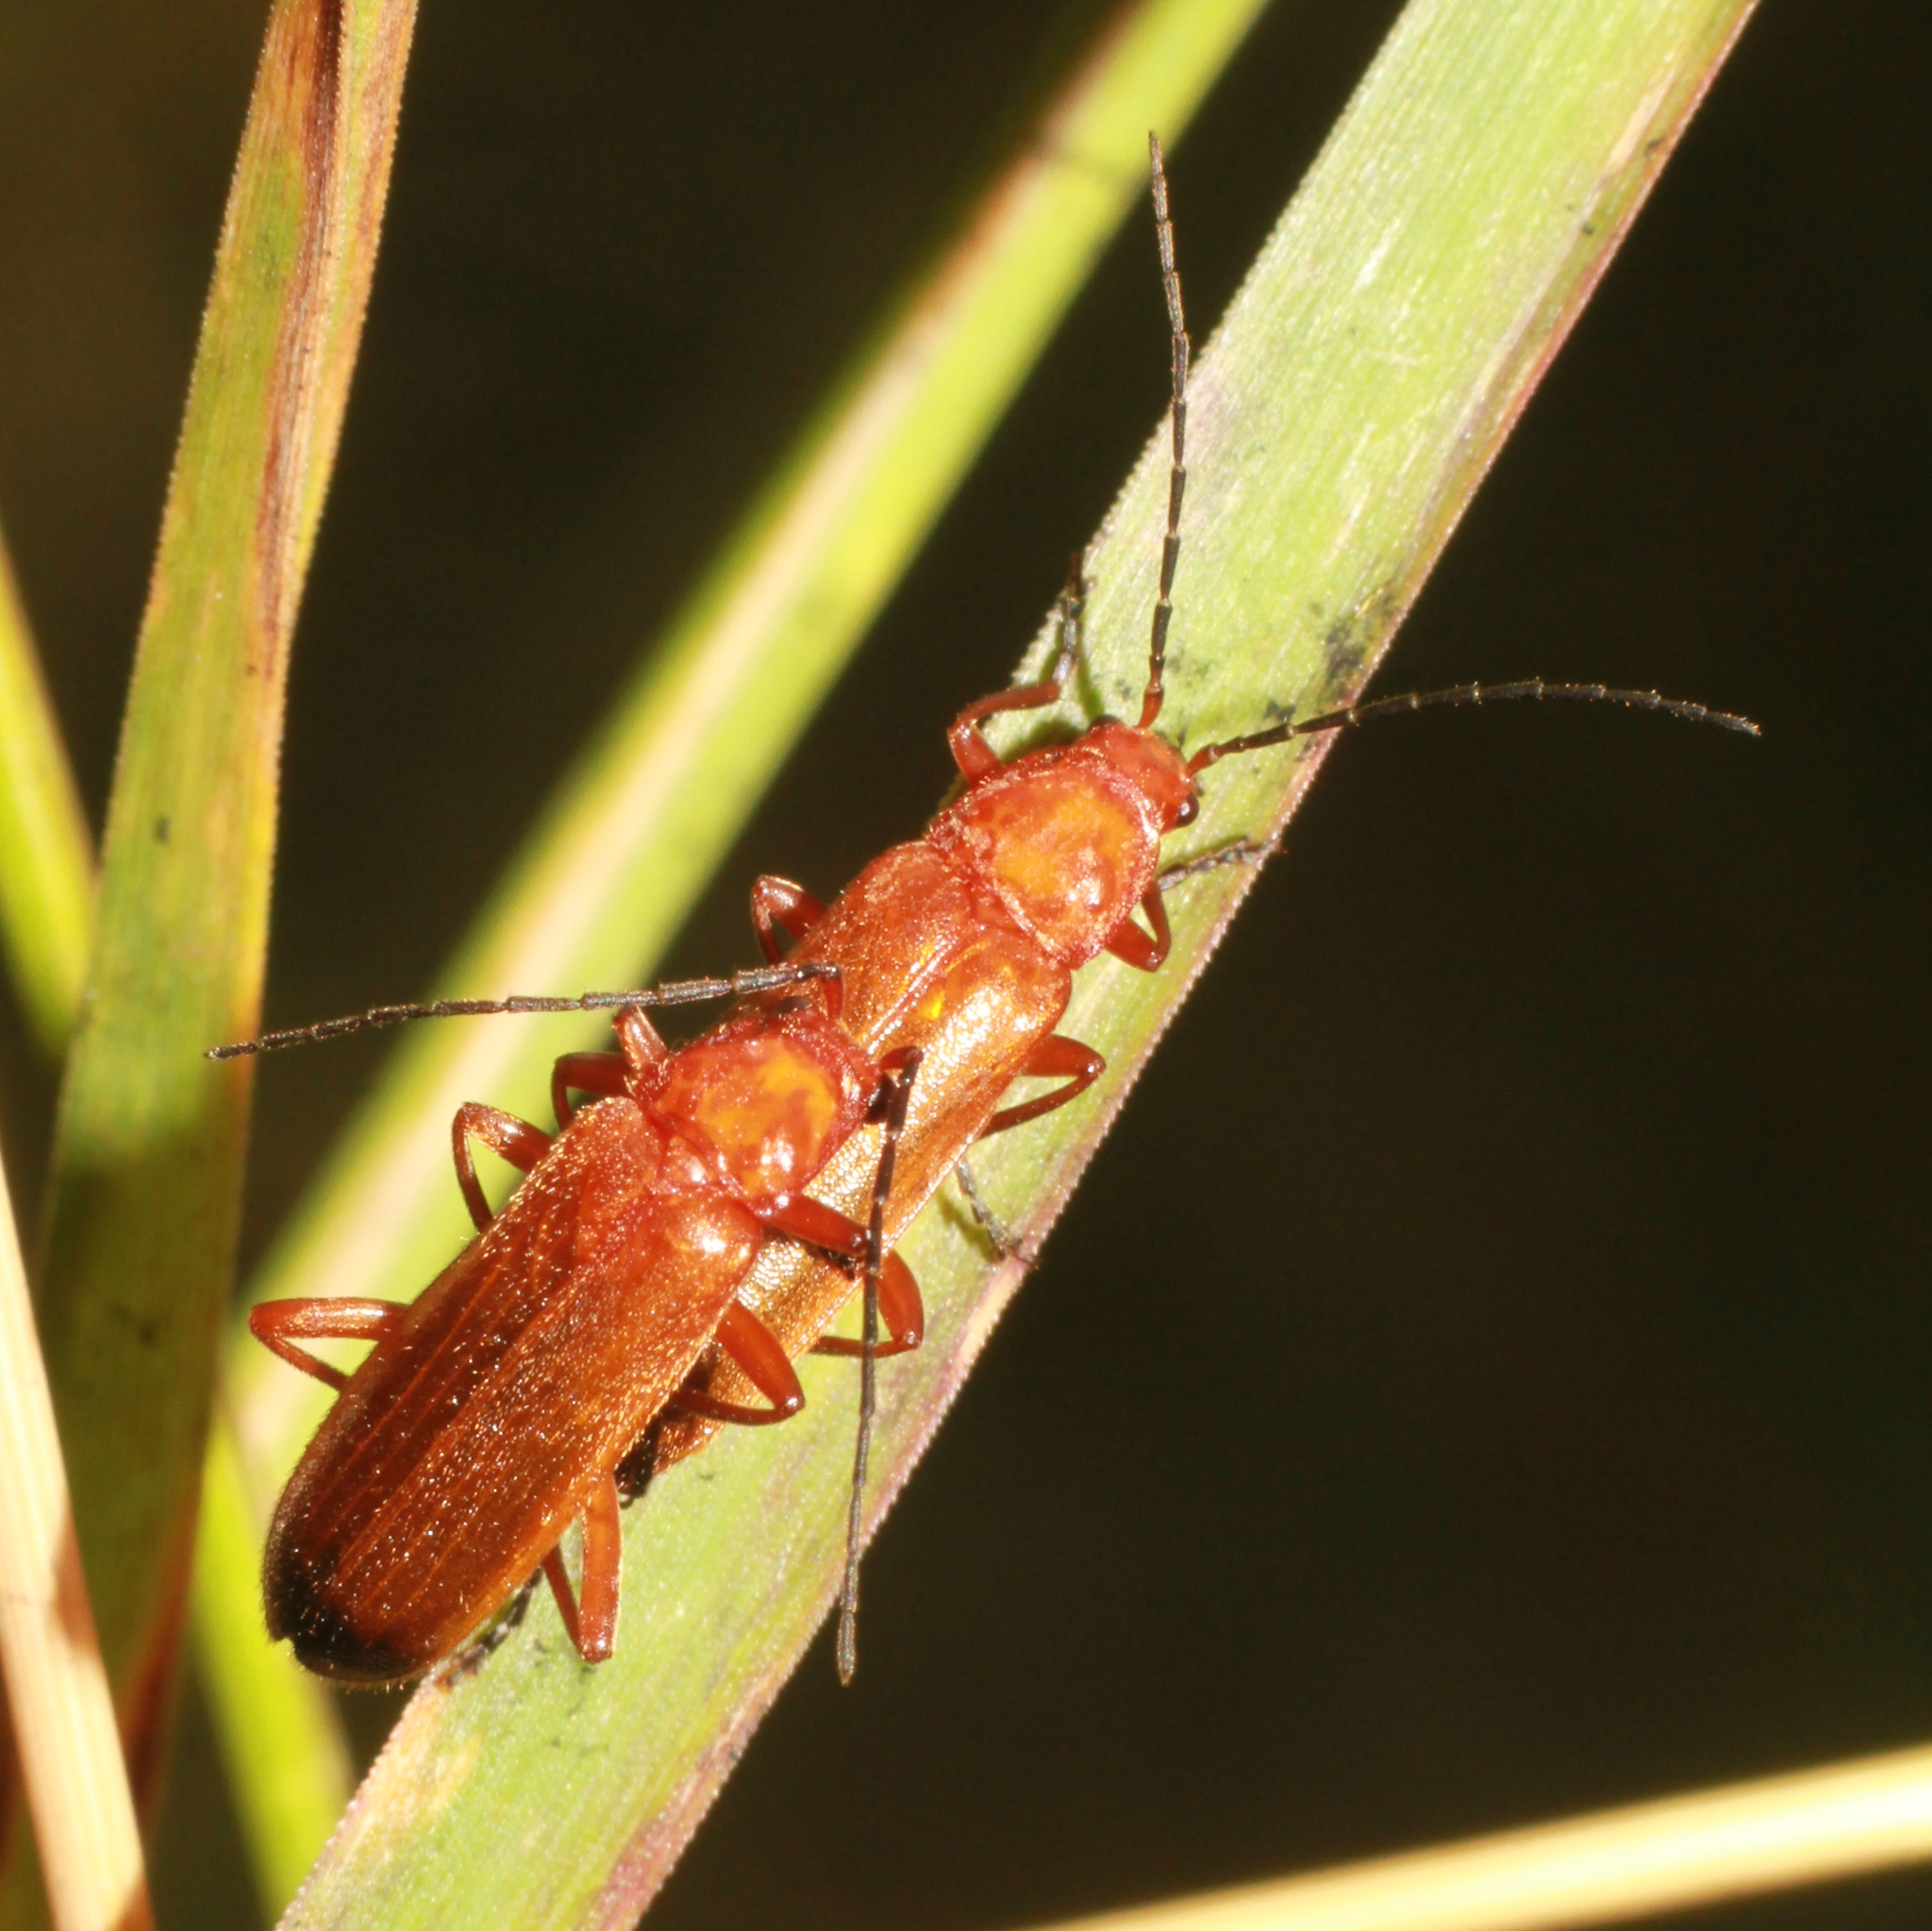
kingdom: Animalia
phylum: Arthropoda
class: Insecta
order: Coleoptera
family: Cantharidae
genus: Rhagonycha
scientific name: Rhagonycha fulva
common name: Common red soldier beetle
